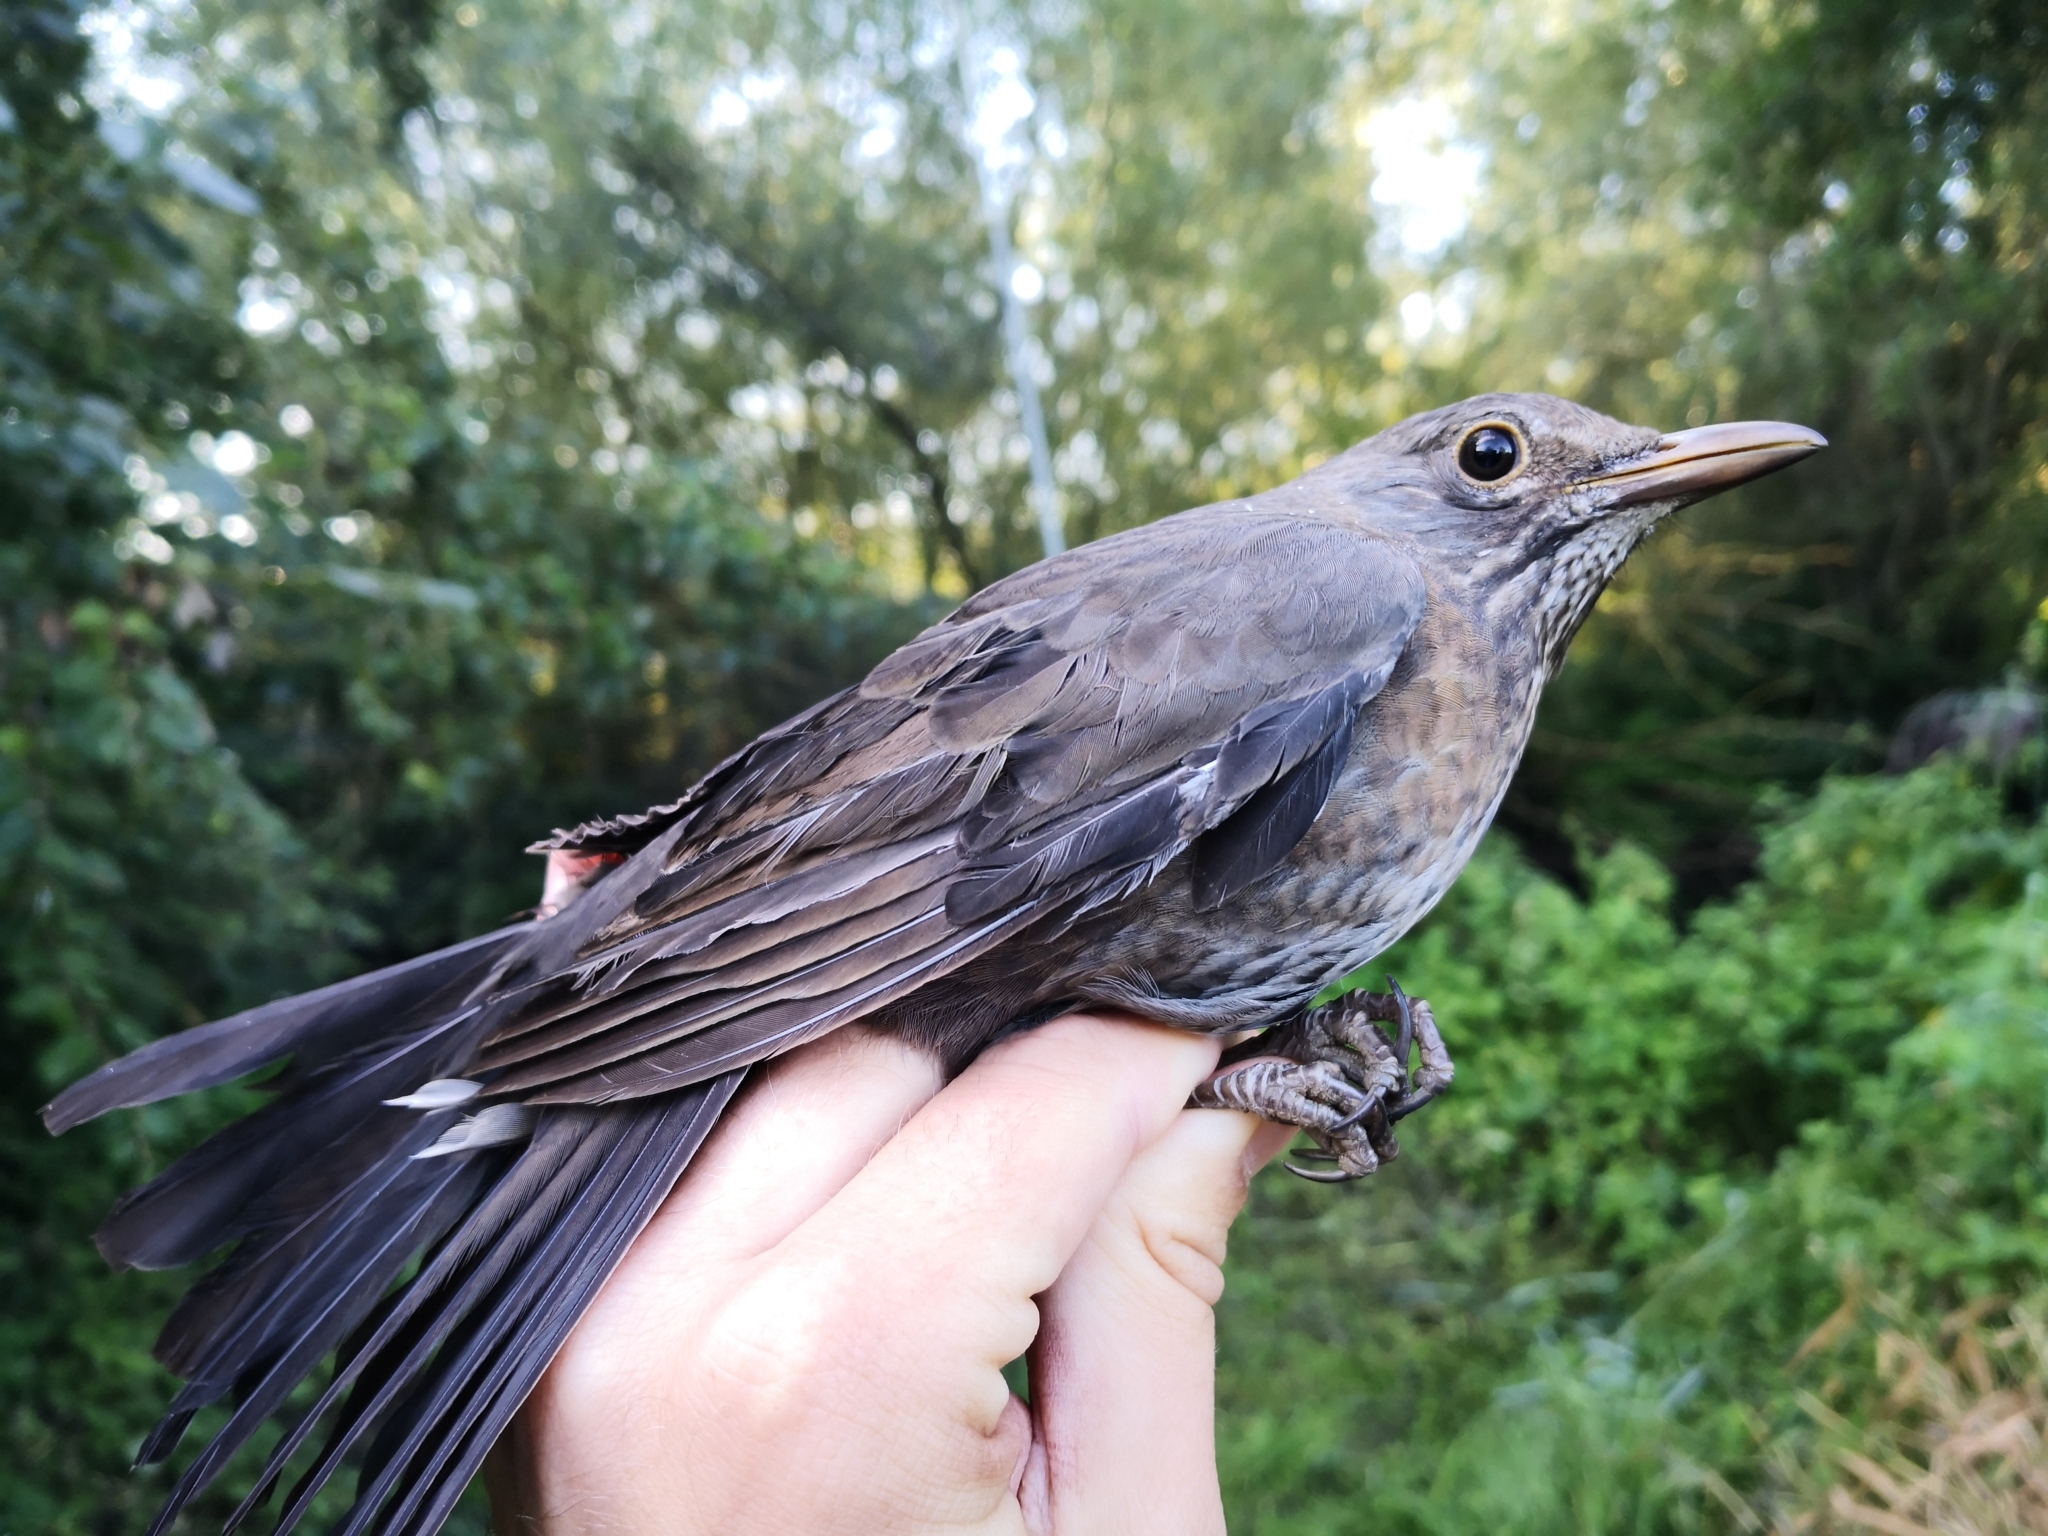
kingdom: Animalia
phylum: Chordata
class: Aves
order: Passeriformes
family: Turdidae
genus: Turdus
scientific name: Turdus merula
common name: Common blackbird
